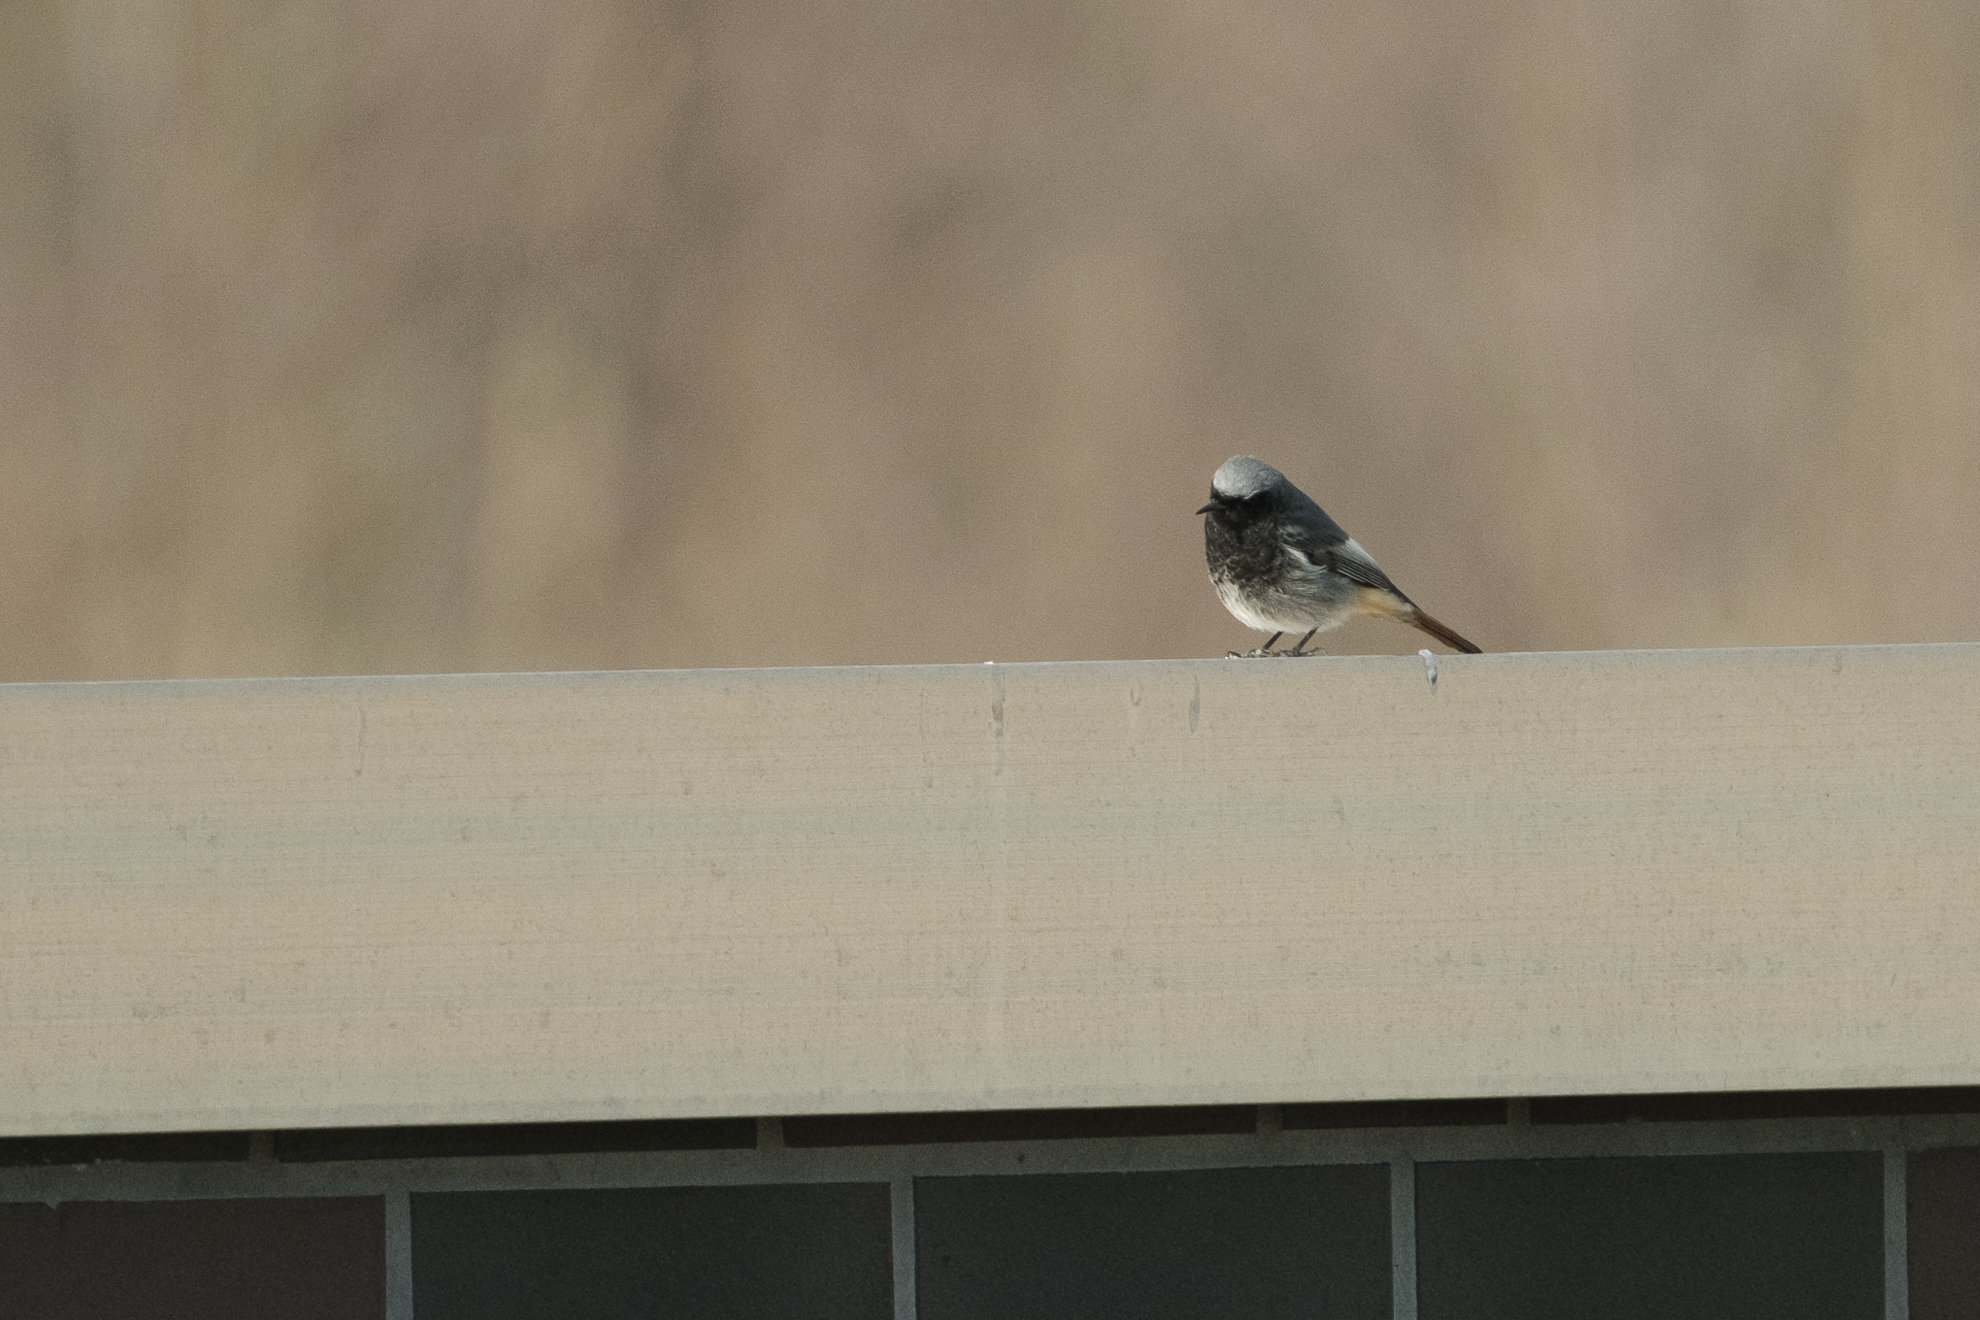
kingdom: Animalia
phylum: Chordata
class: Aves
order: Passeriformes
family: Muscicapidae
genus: Phoenicurus
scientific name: Phoenicurus ochruros
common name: Black redstart
